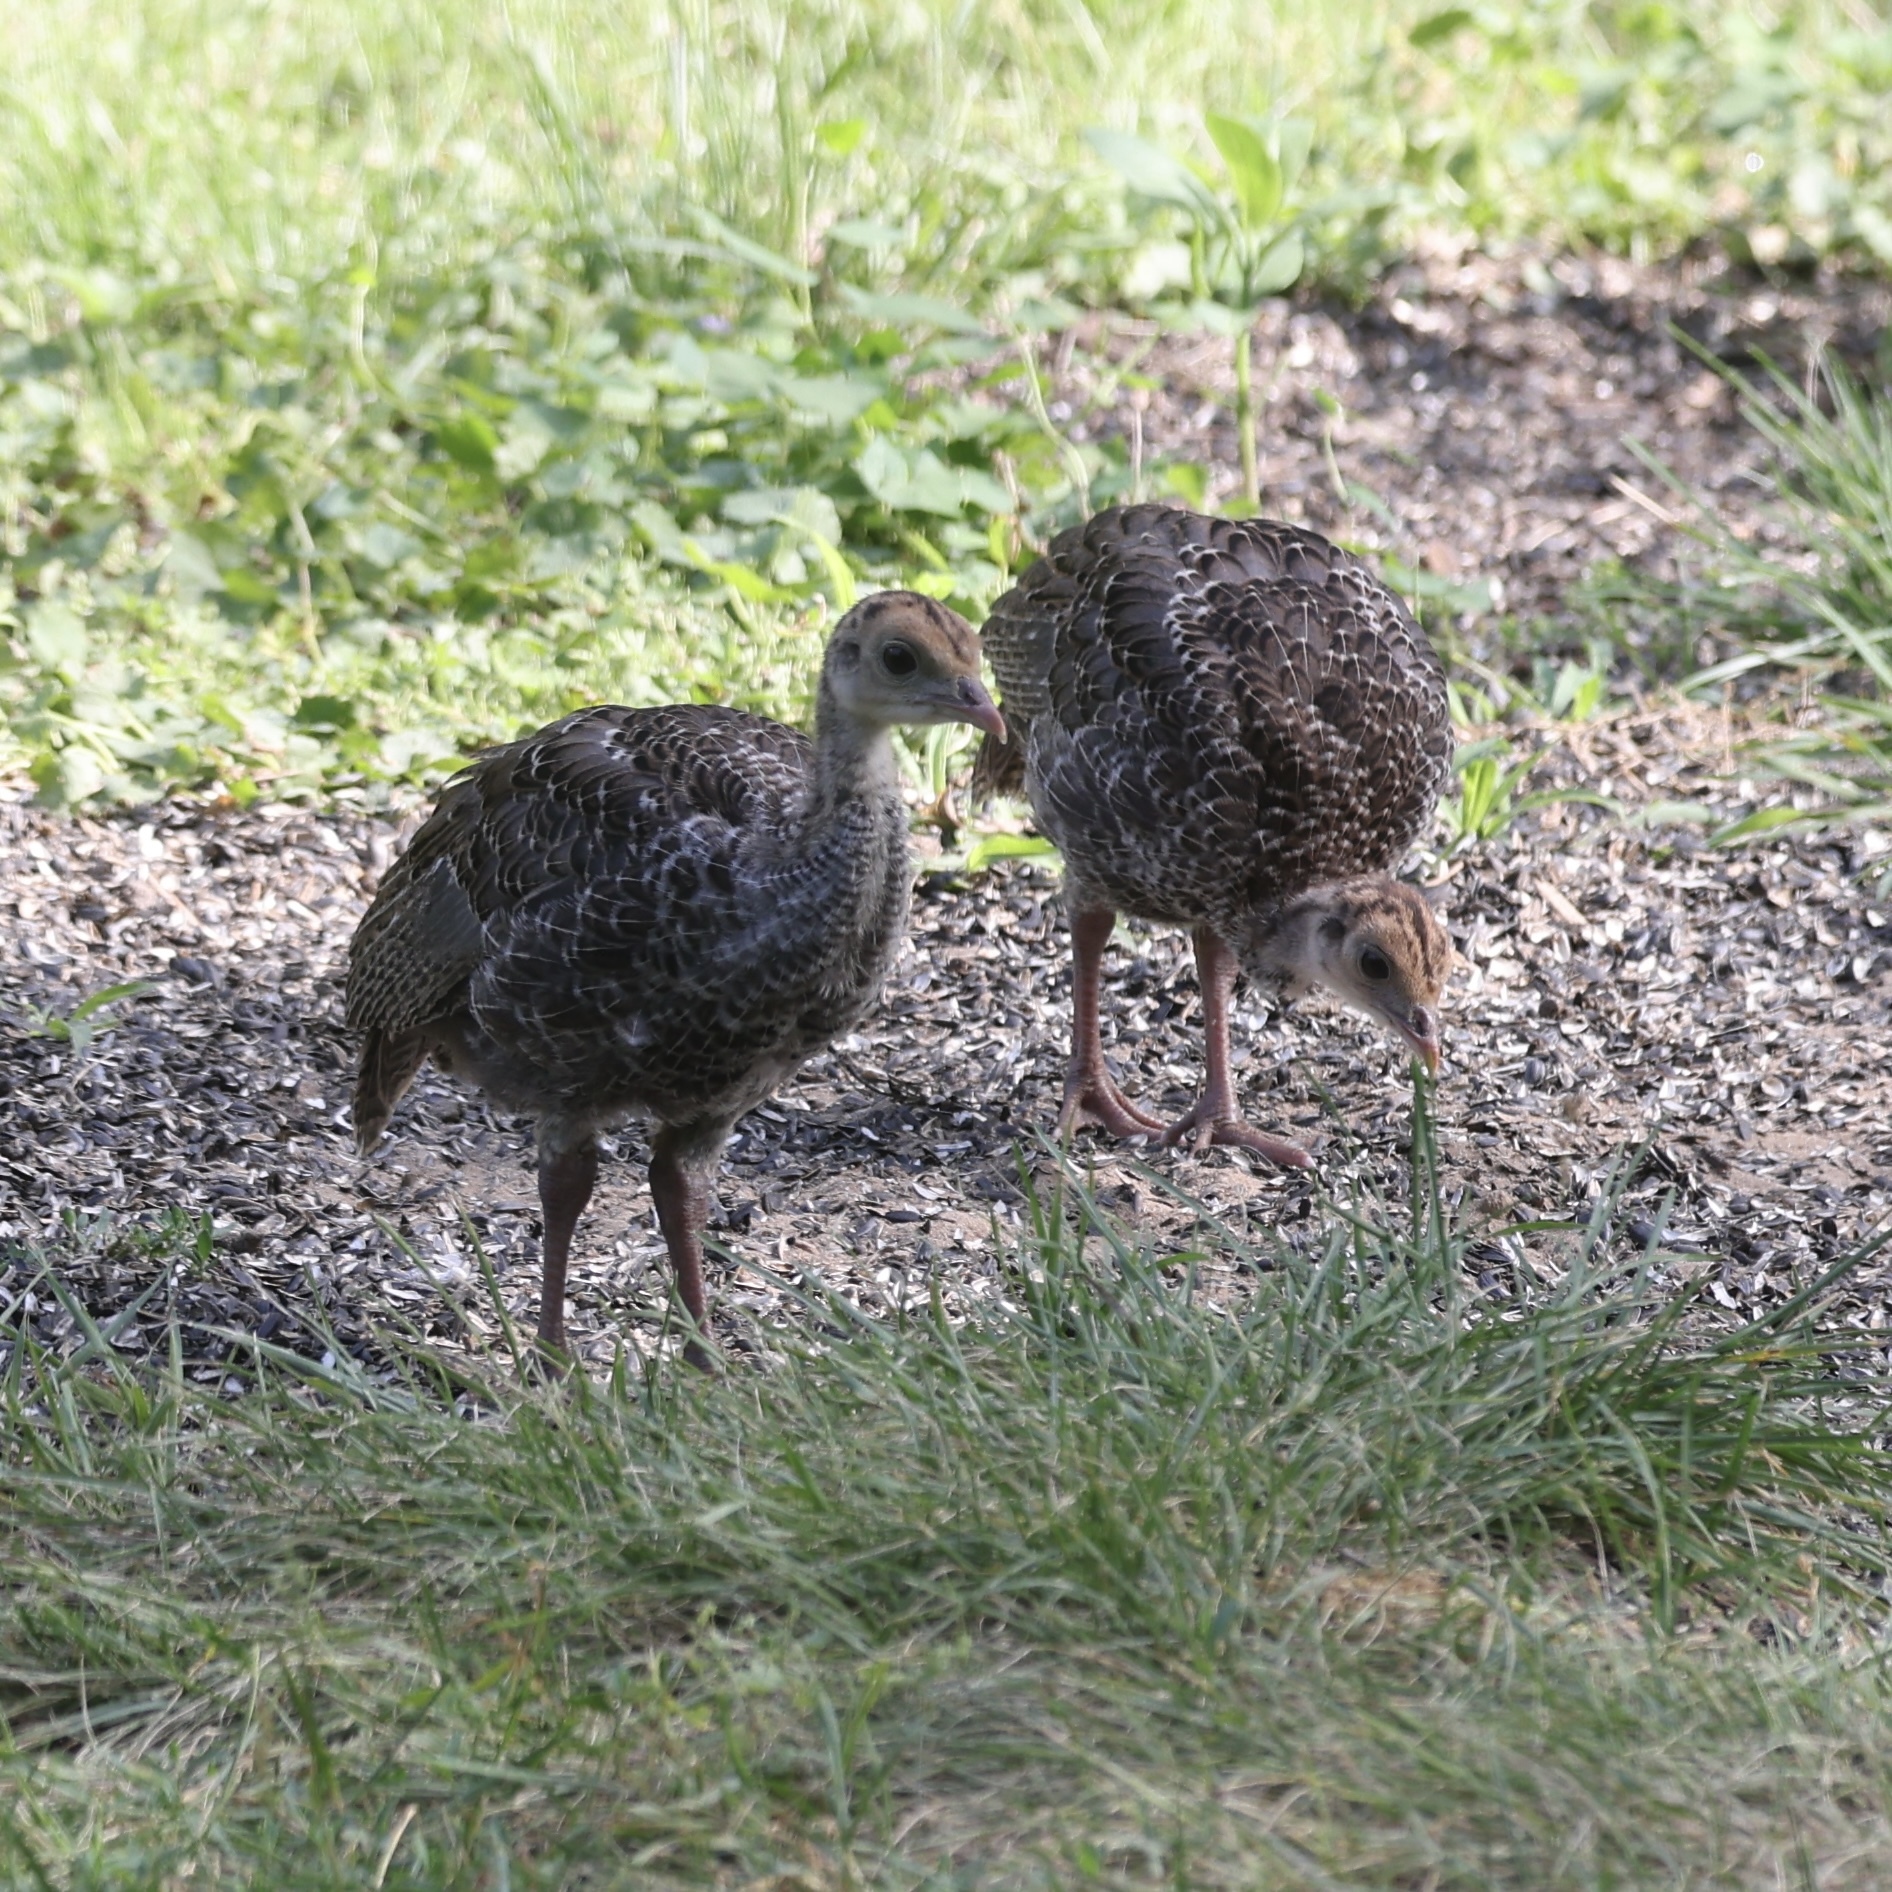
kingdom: Animalia
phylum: Chordata
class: Aves
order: Galliformes
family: Phasianidae
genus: Meleagris
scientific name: Meleagris gallopavo
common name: Wild turkey
